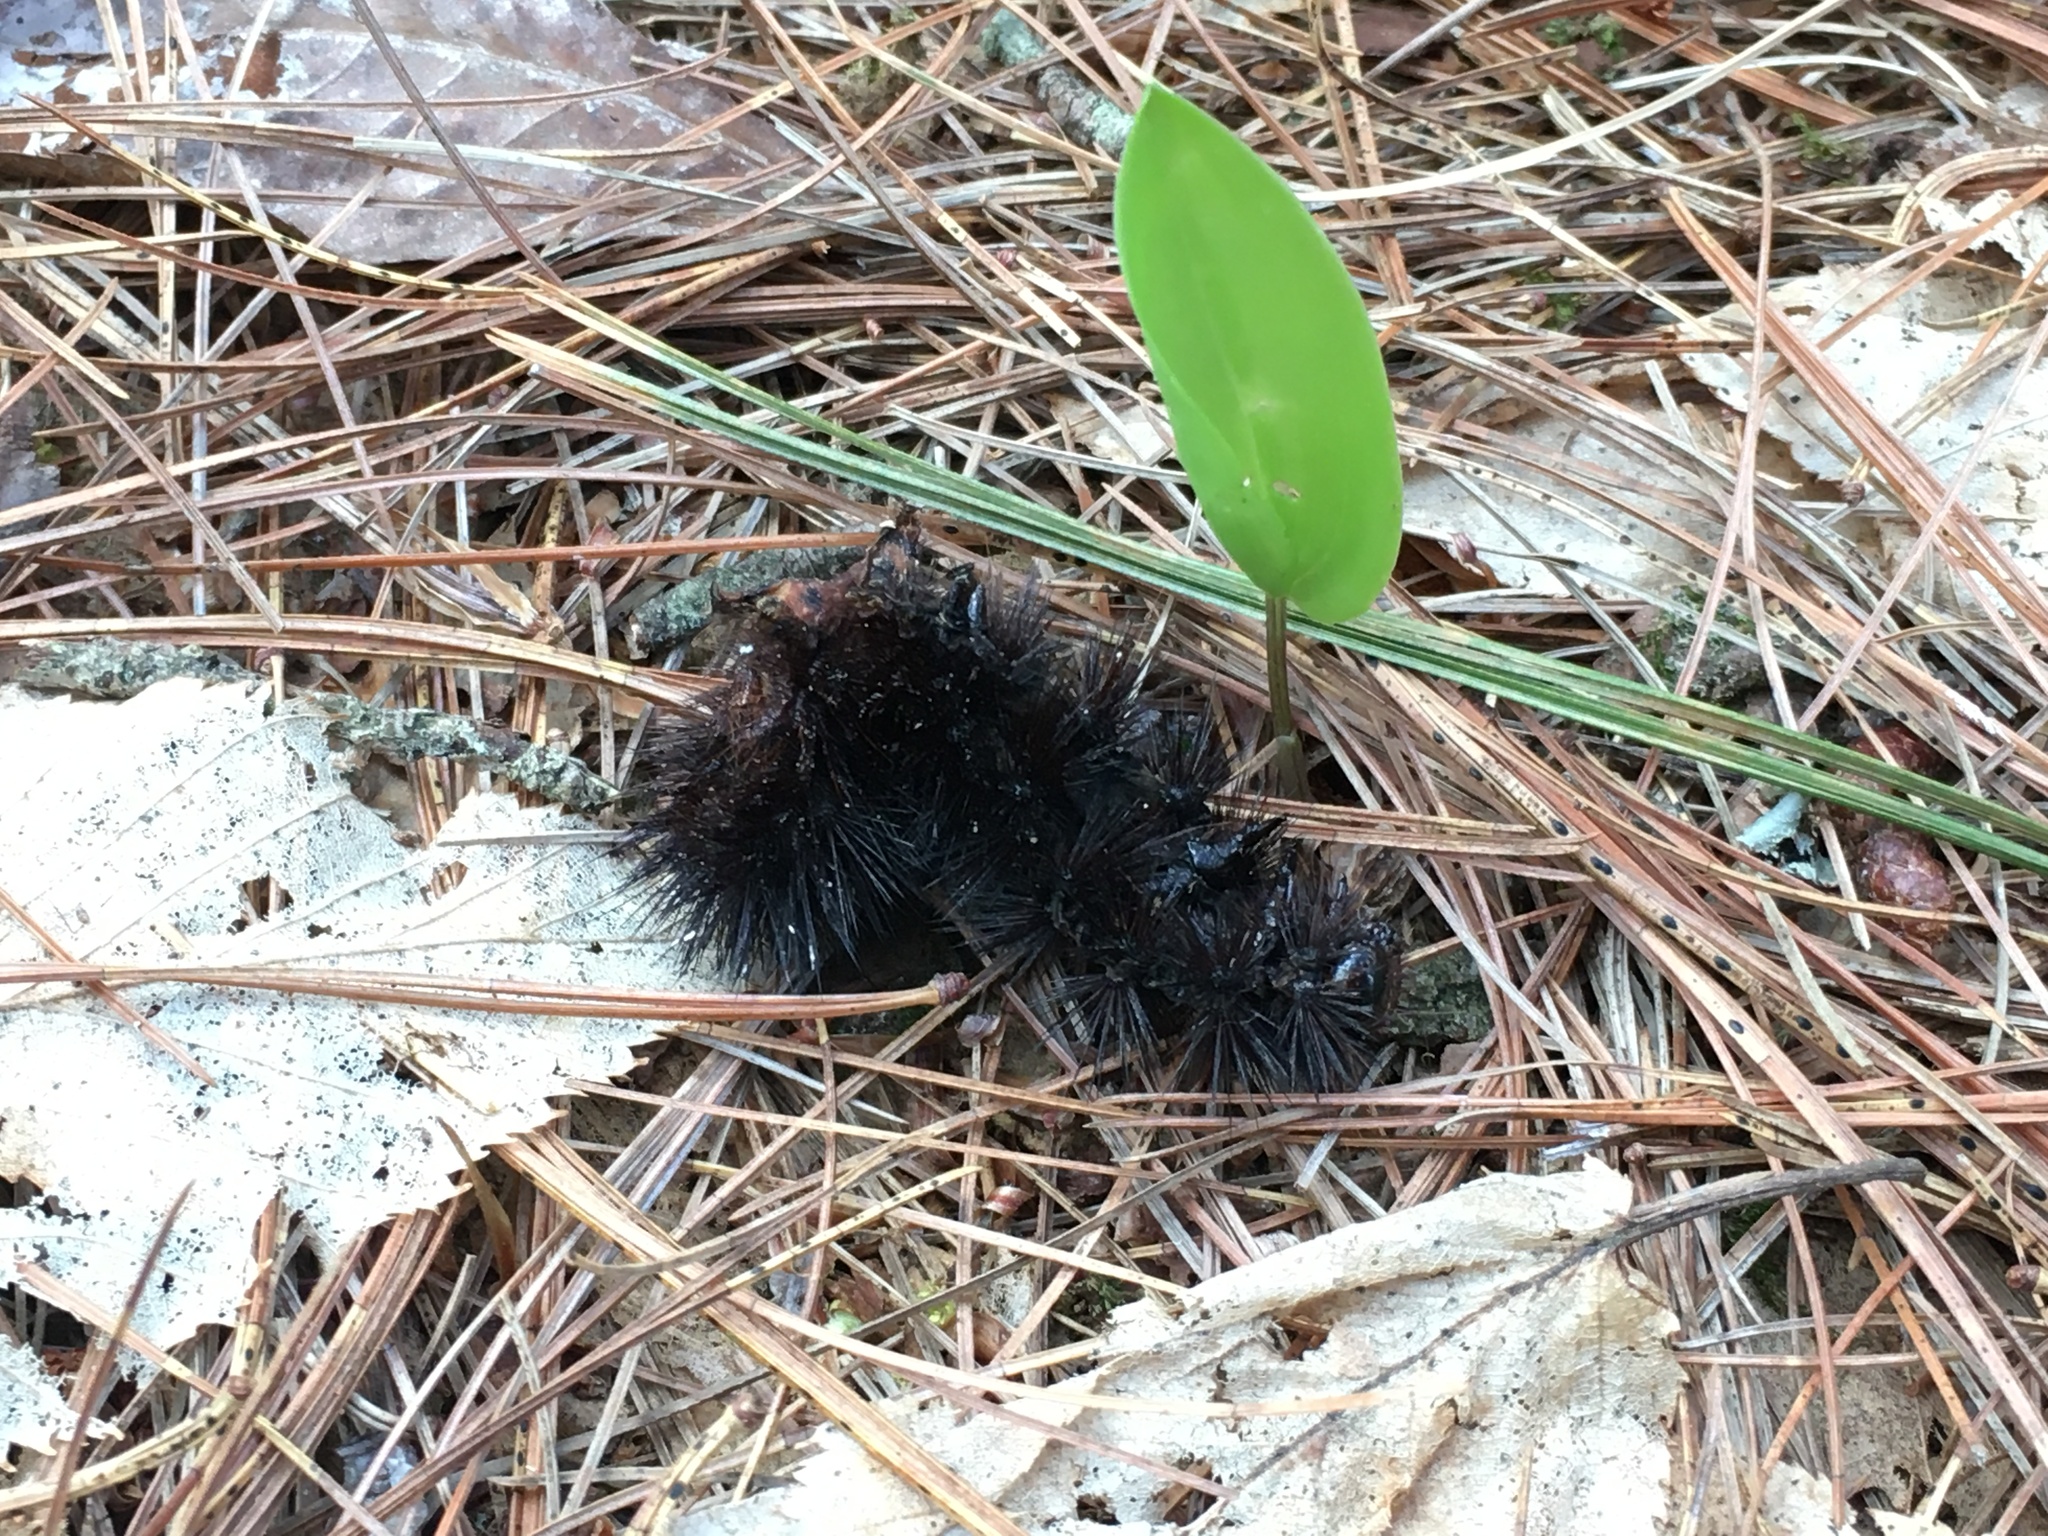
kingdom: Animalia
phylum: Arthropoda
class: Insecta
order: Lepidoptera
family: Erebidae
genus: Hypercompe
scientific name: Hypercompe scribonia
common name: Giant leopard moth
